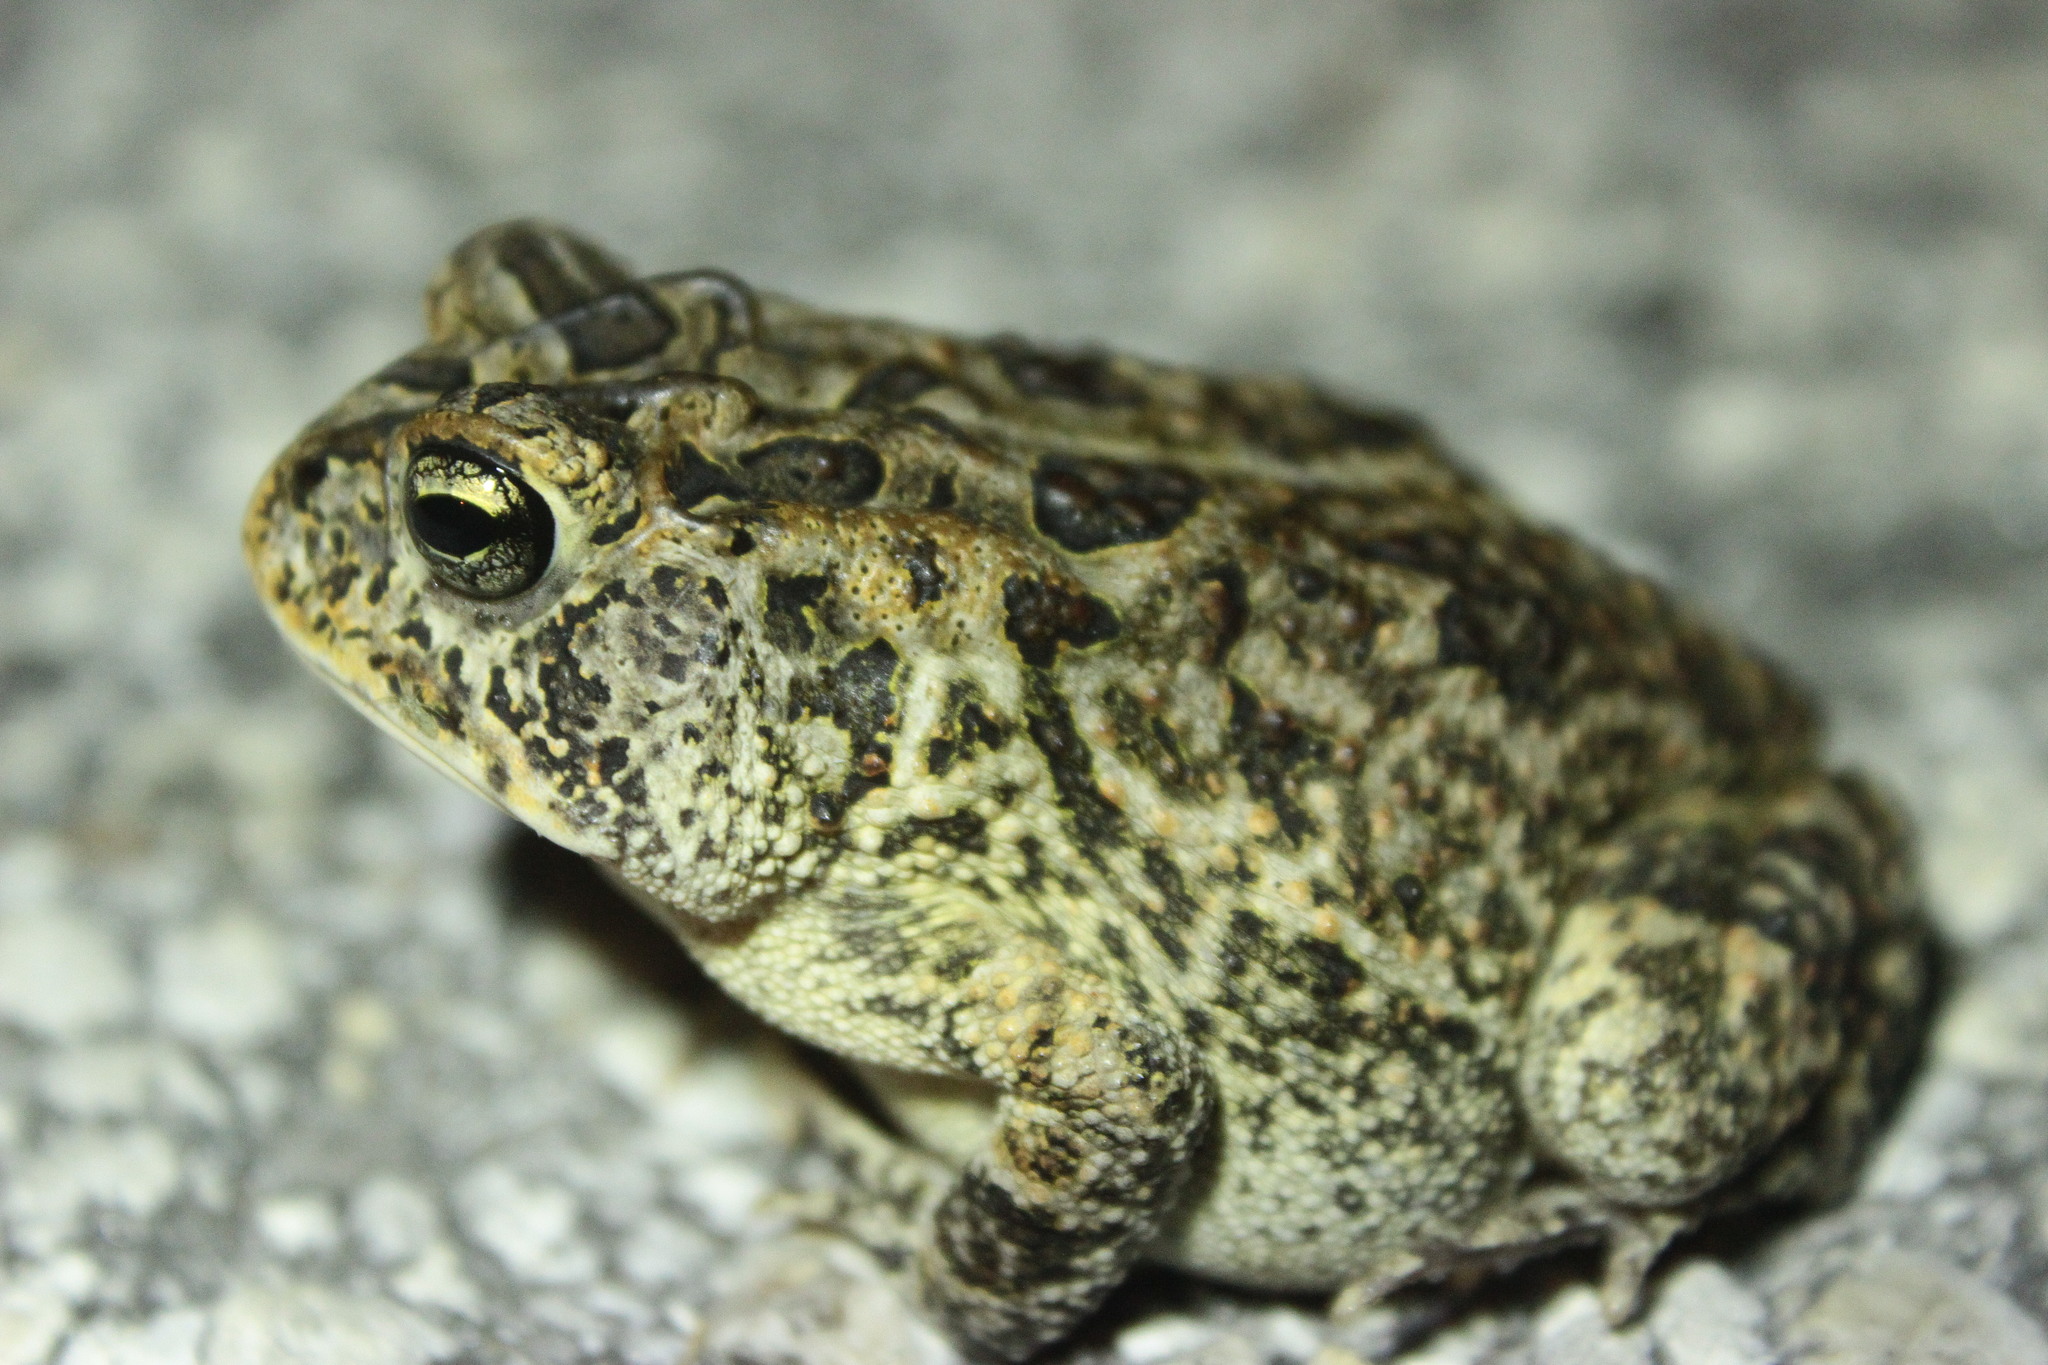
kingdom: Animalia
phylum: Chordata
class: Amphibia
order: Anura
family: Bufonidae
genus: Anaxyrus
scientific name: Anaxyrus terrestris
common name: Southern toad
